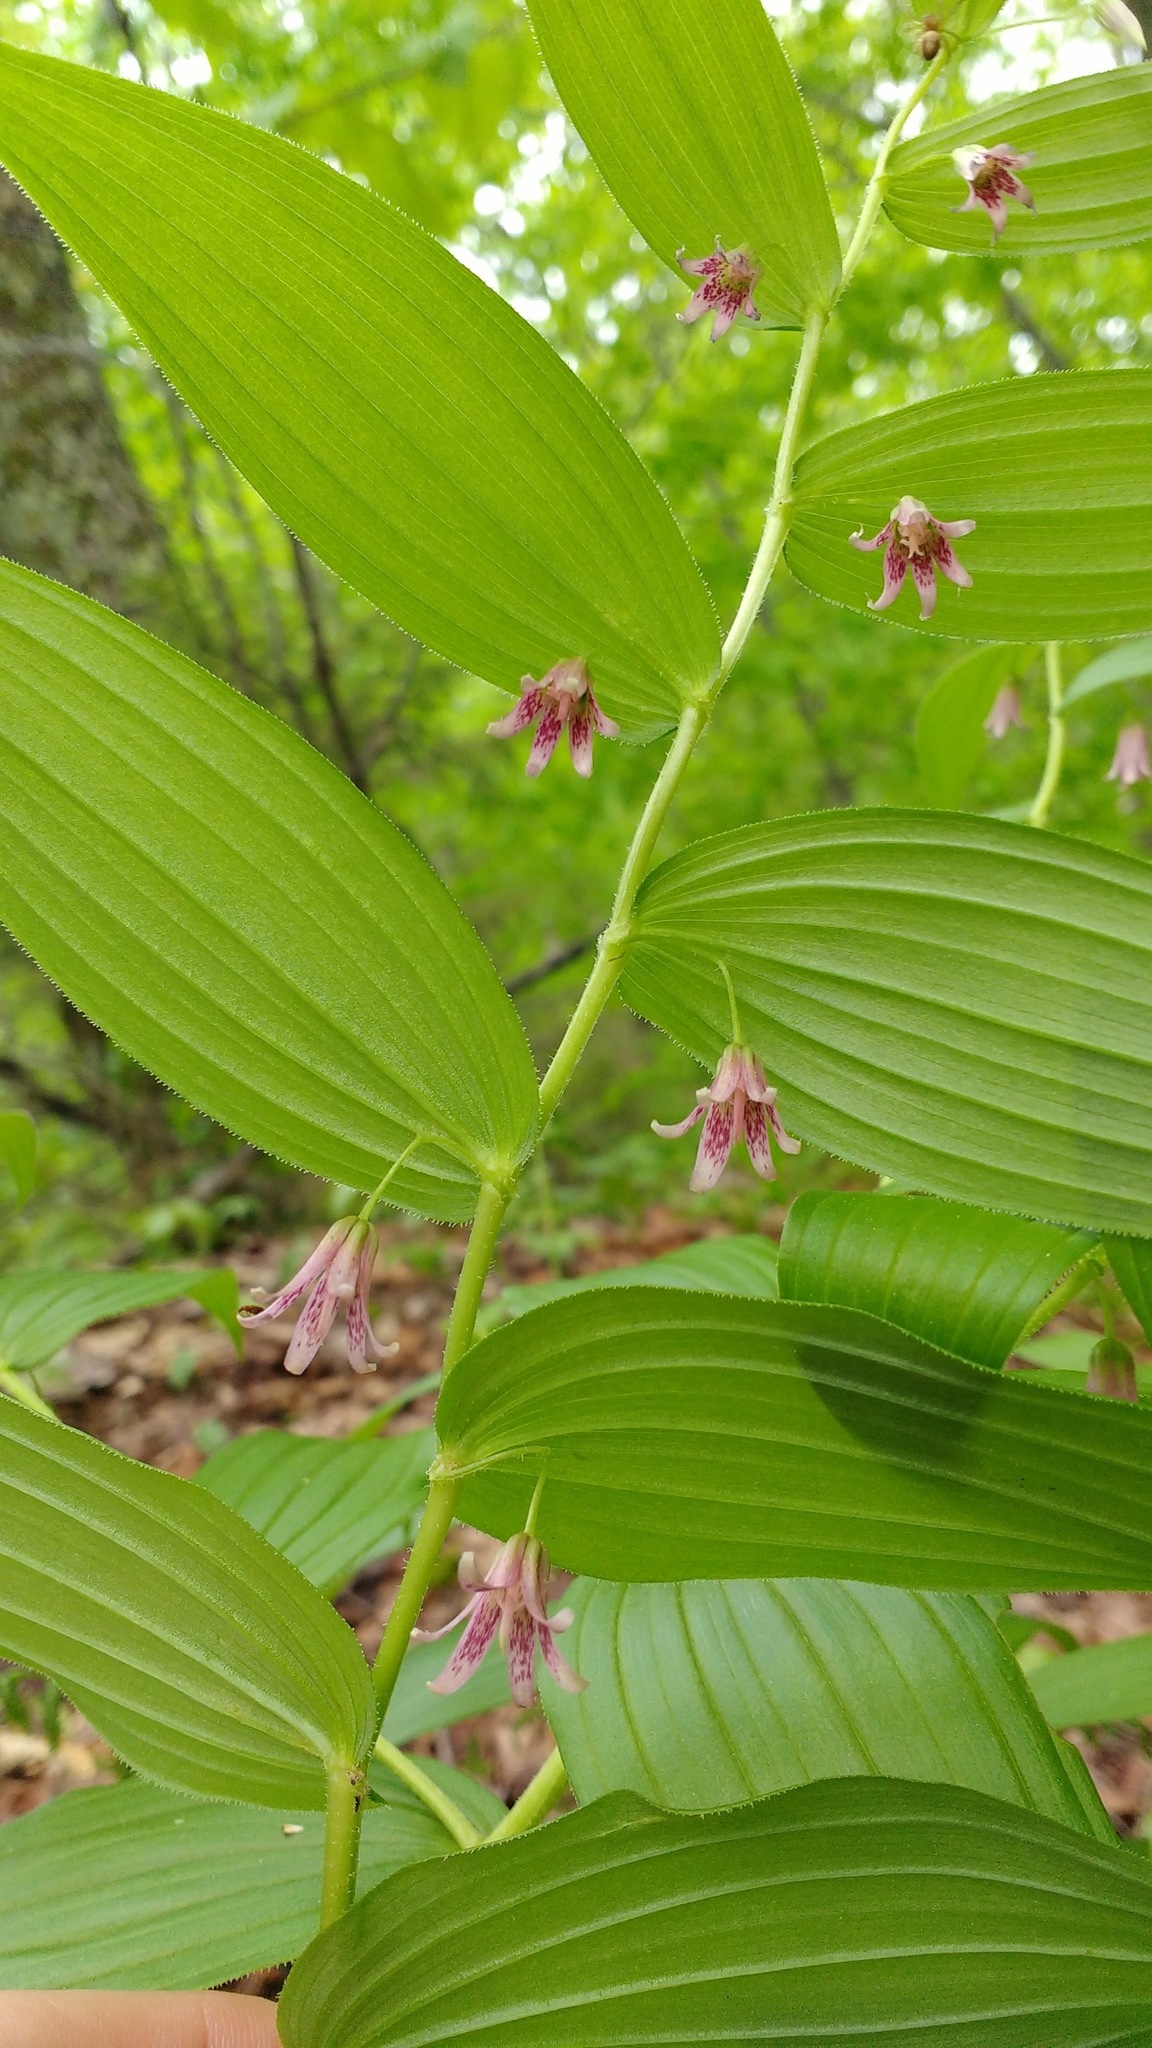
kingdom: Plantae
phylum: Tracheophyta
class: Liliopsida
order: Liliales
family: Liliaceae
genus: Streptopus
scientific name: Streptopus lanceolatus
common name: Rose mandarin
